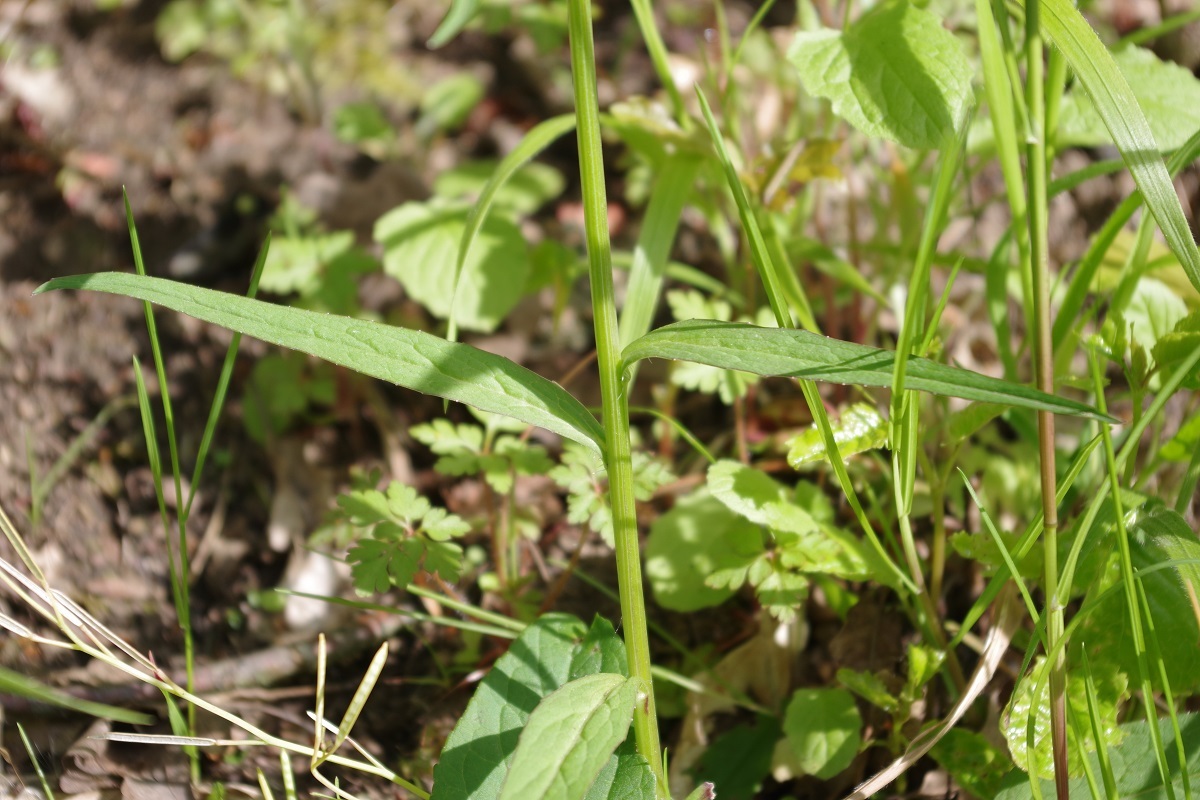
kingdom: Plantae
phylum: Tracheophyta
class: Magnoliopsida
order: Asterales
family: Campanulaceae
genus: Phyteuma
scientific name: Phyteuma nigrum
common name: Black rampion
